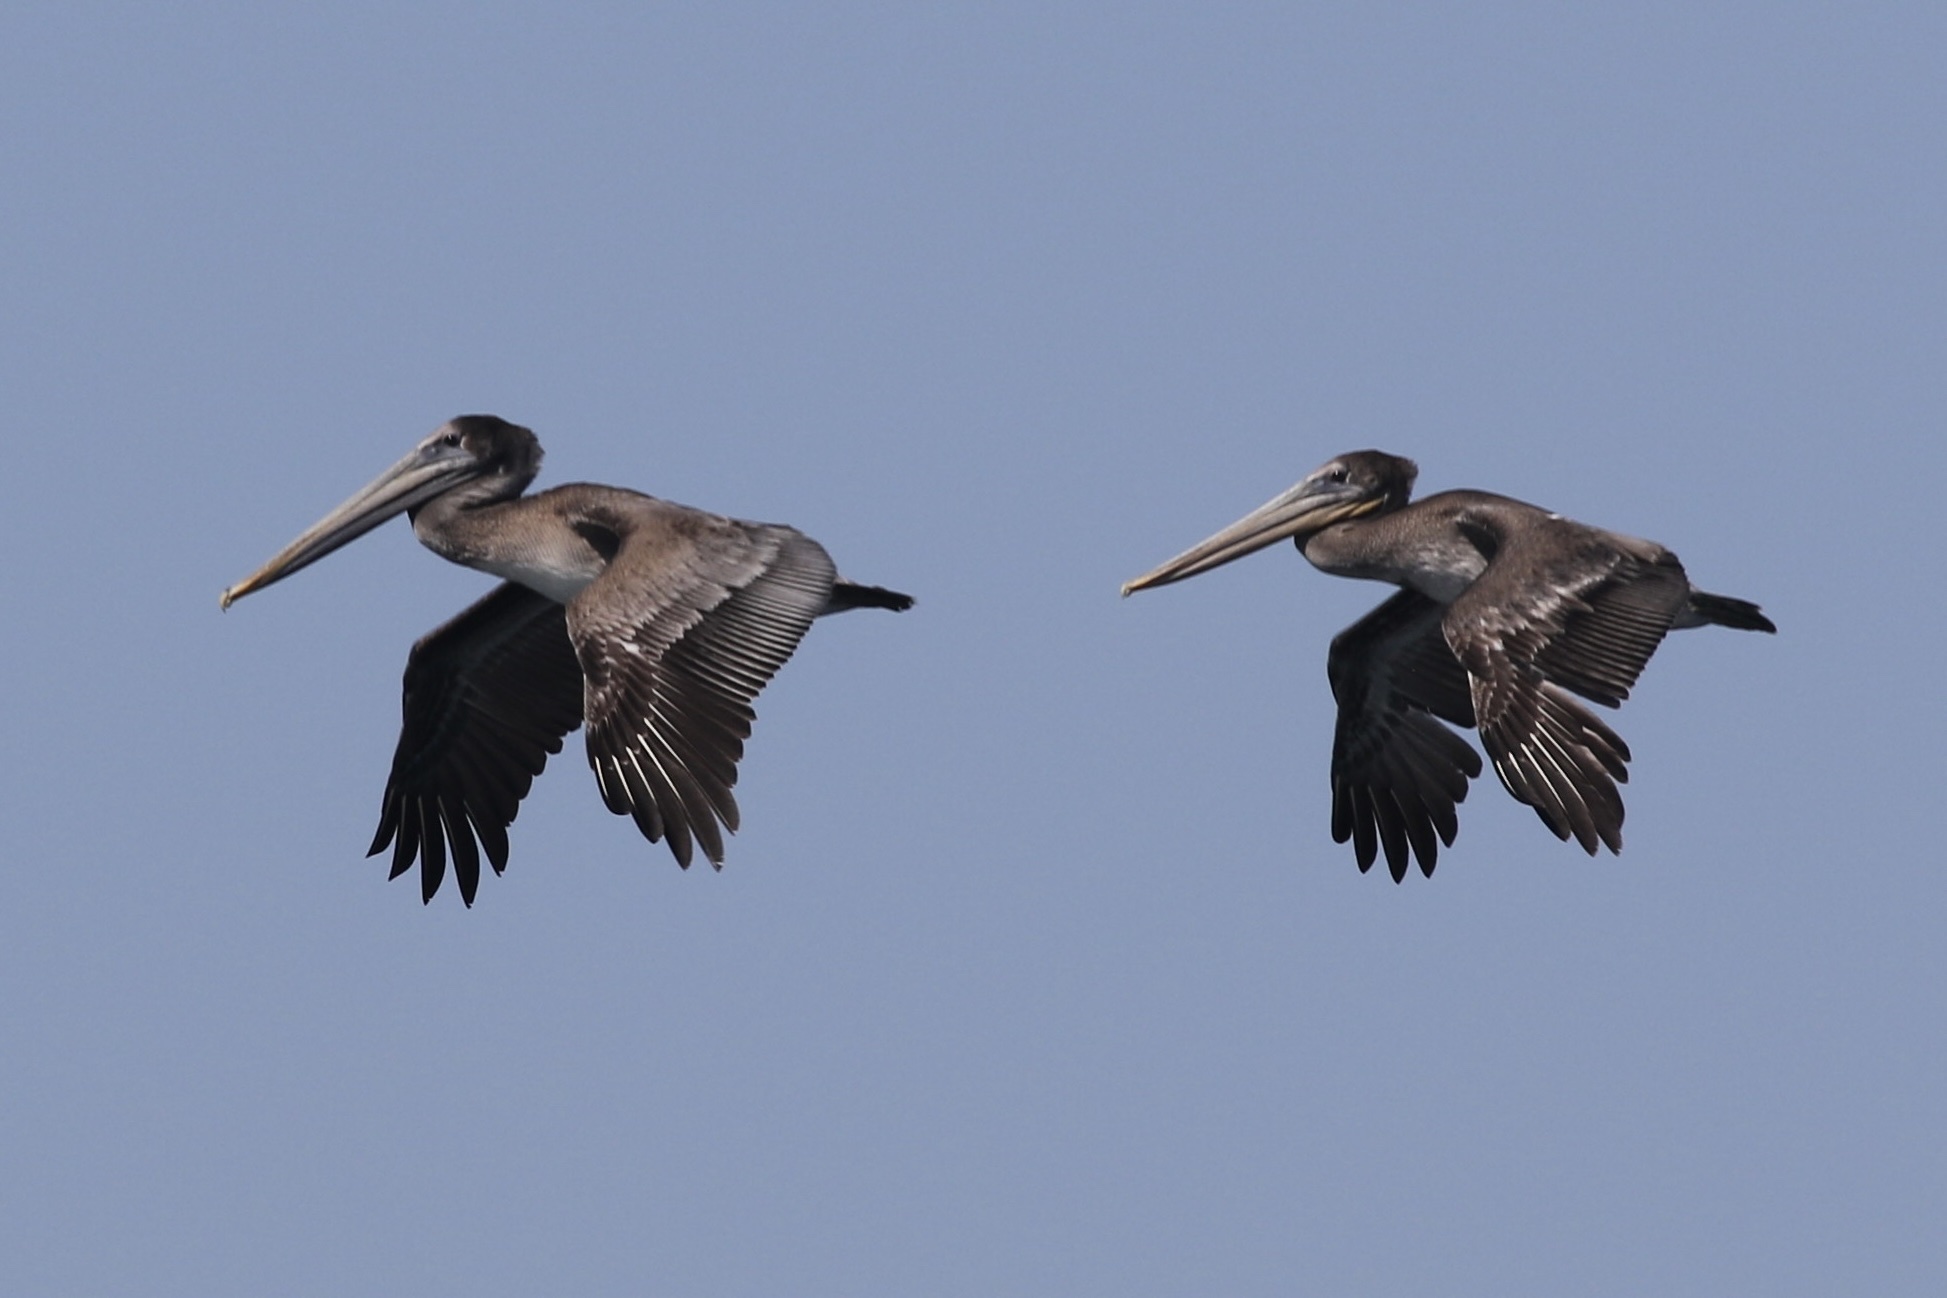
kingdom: Animalia
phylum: Chordata
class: Aves
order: Pelecaniformes
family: Pelecanidae
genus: Pelecanus
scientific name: Pelecanus occidentalis
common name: Brown pelican
